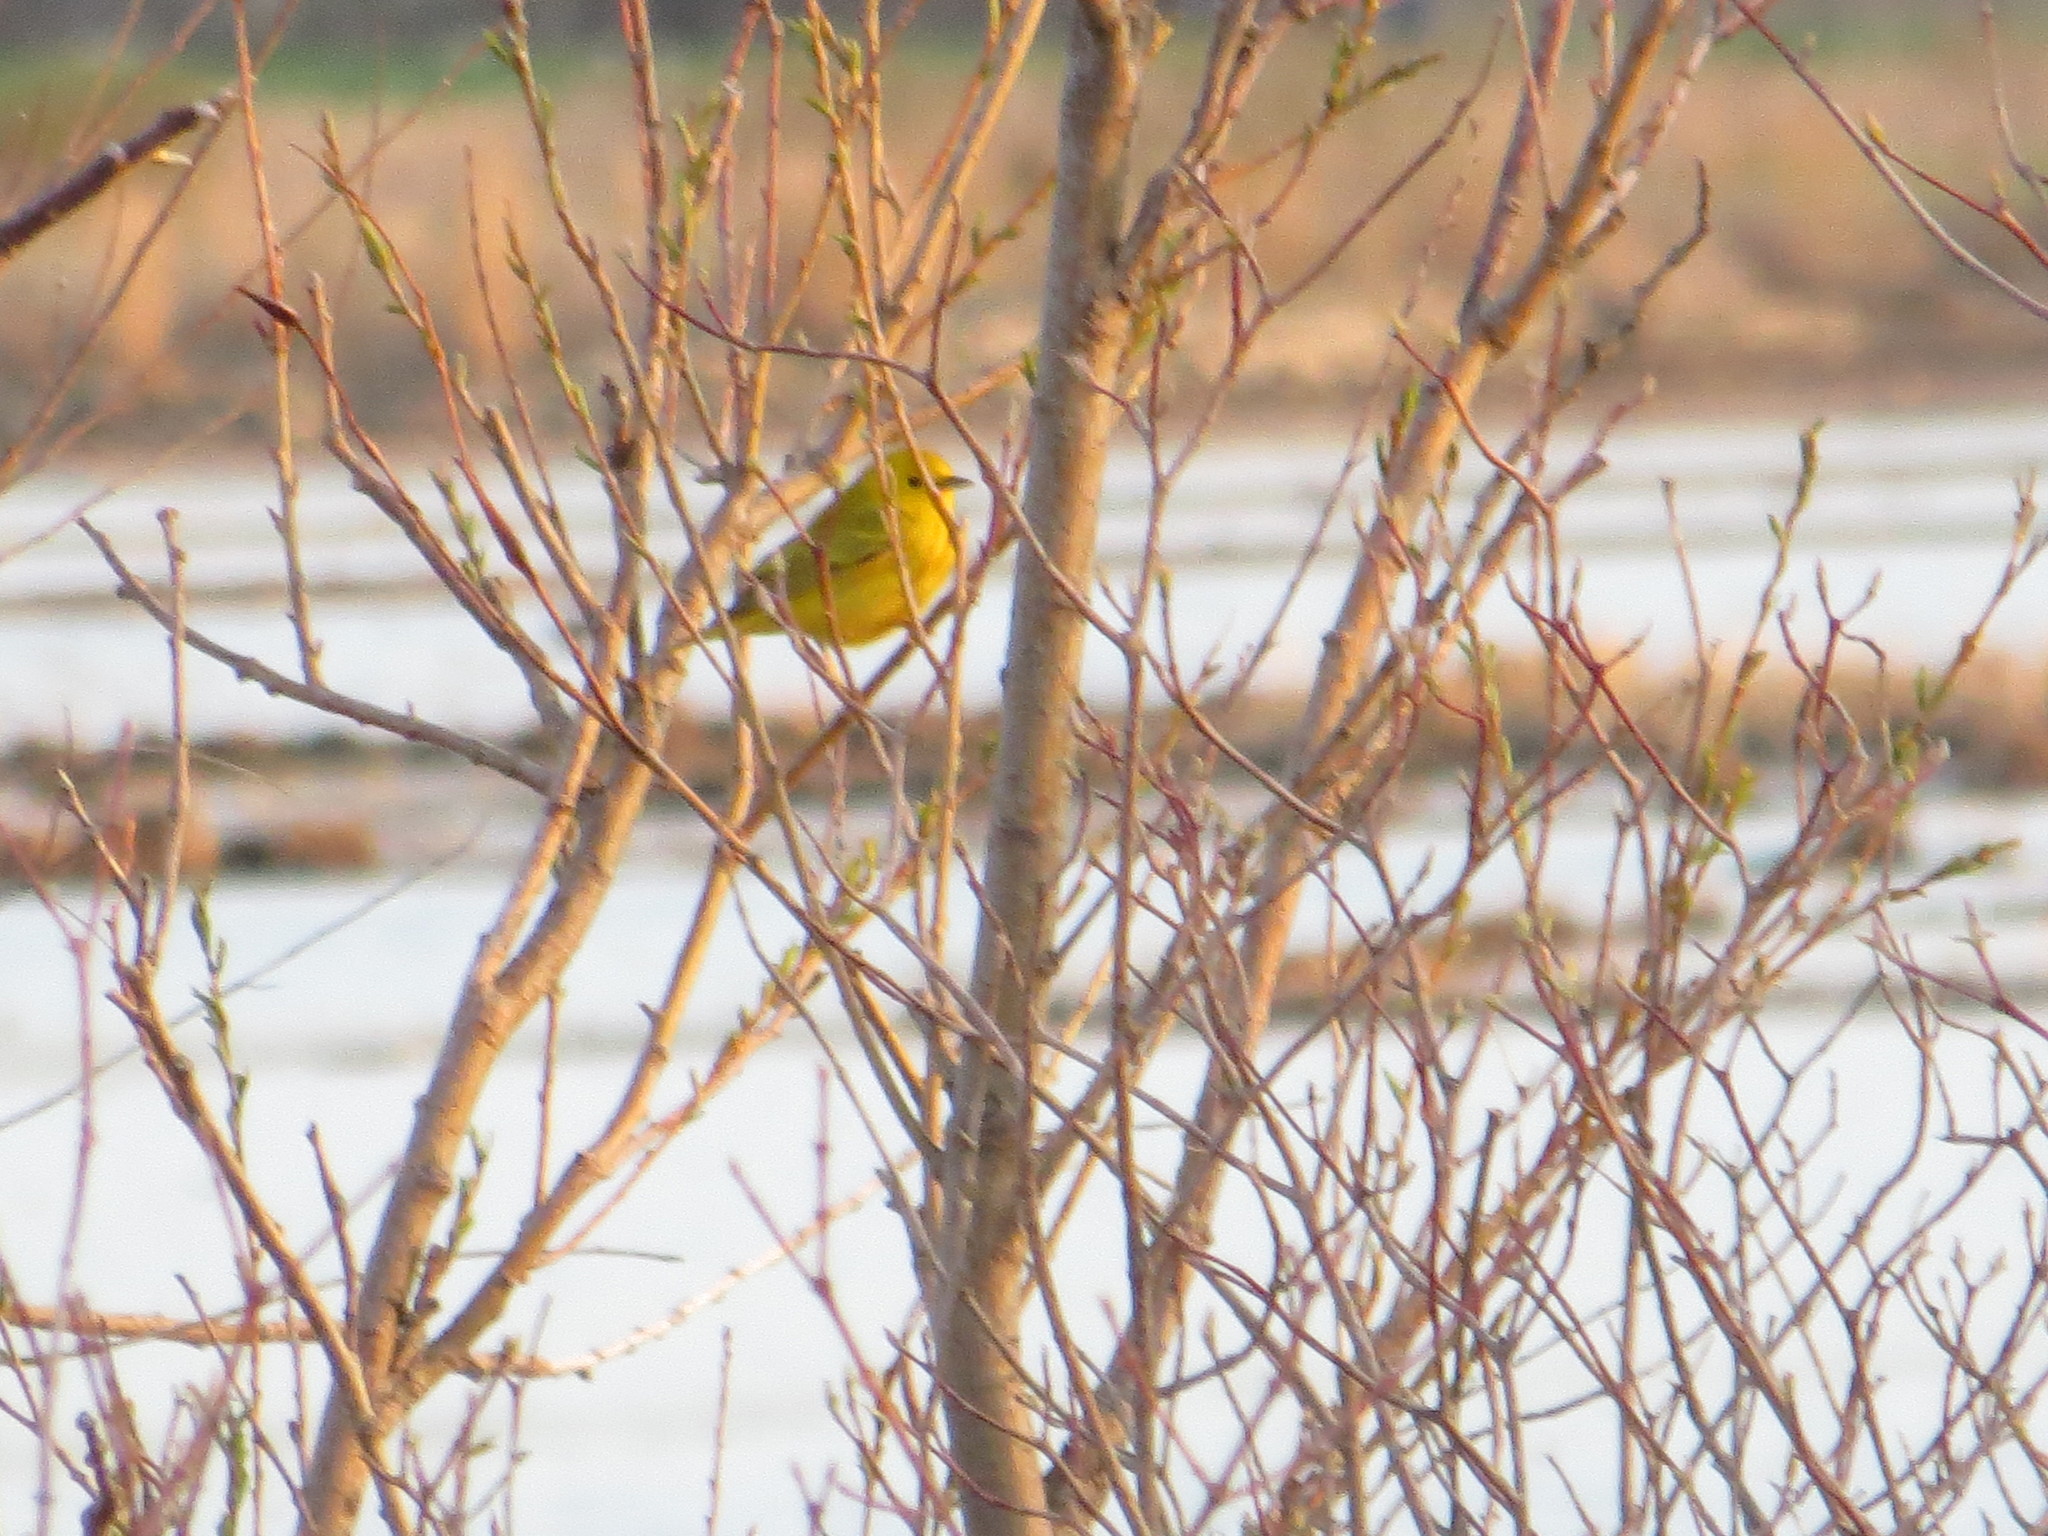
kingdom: Animalia
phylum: Chordata
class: Aves
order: Passeriformes
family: Parulidae
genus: Setophaga
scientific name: Setophaga petechia
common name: Yellow warbler
